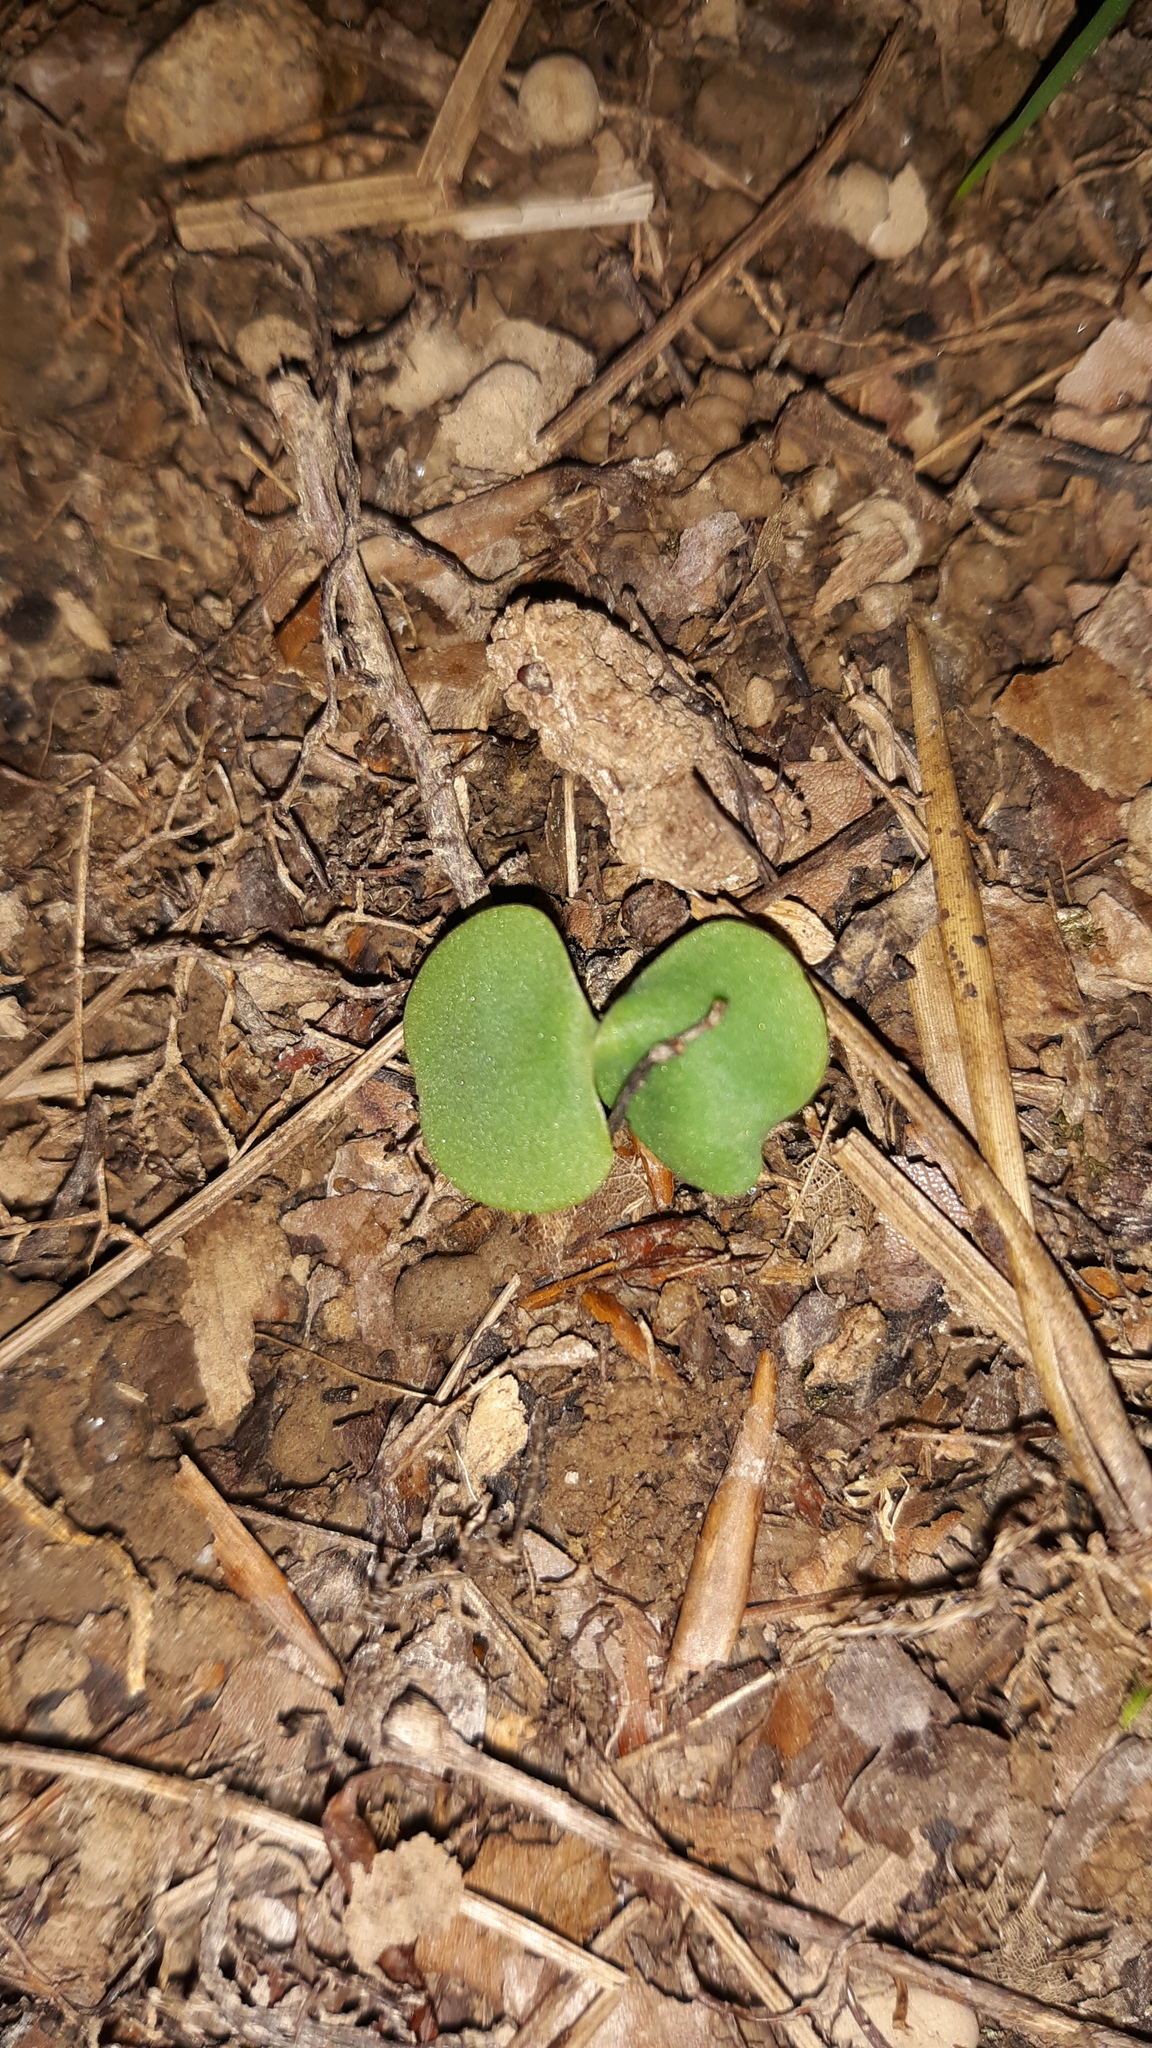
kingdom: Plantae
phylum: Tracheophyta
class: Magnoliopsida
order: Ericales
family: Balsaminaceae
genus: Impatiens
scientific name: Impatiens
